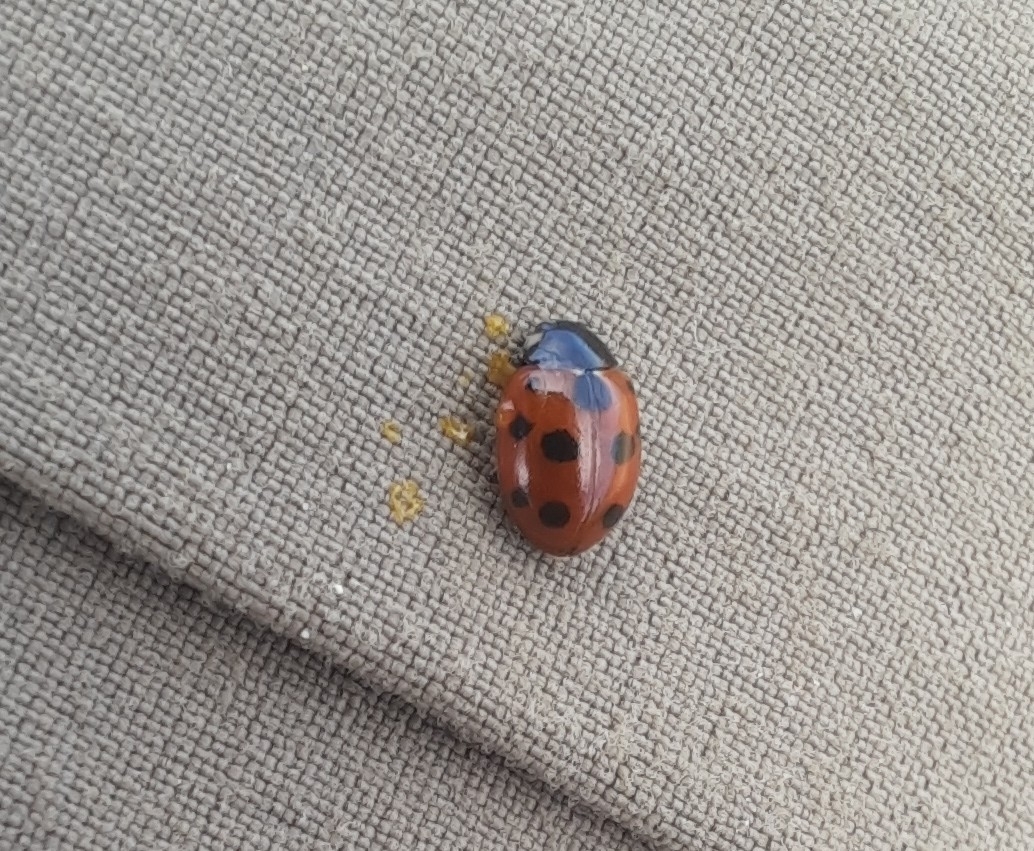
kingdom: Animalia
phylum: Arthropoda
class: Insecta
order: Coleoptera
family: Coccinellidae
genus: Coccinella
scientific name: Coccinella undecimpunctata
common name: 11-spot ladybird
